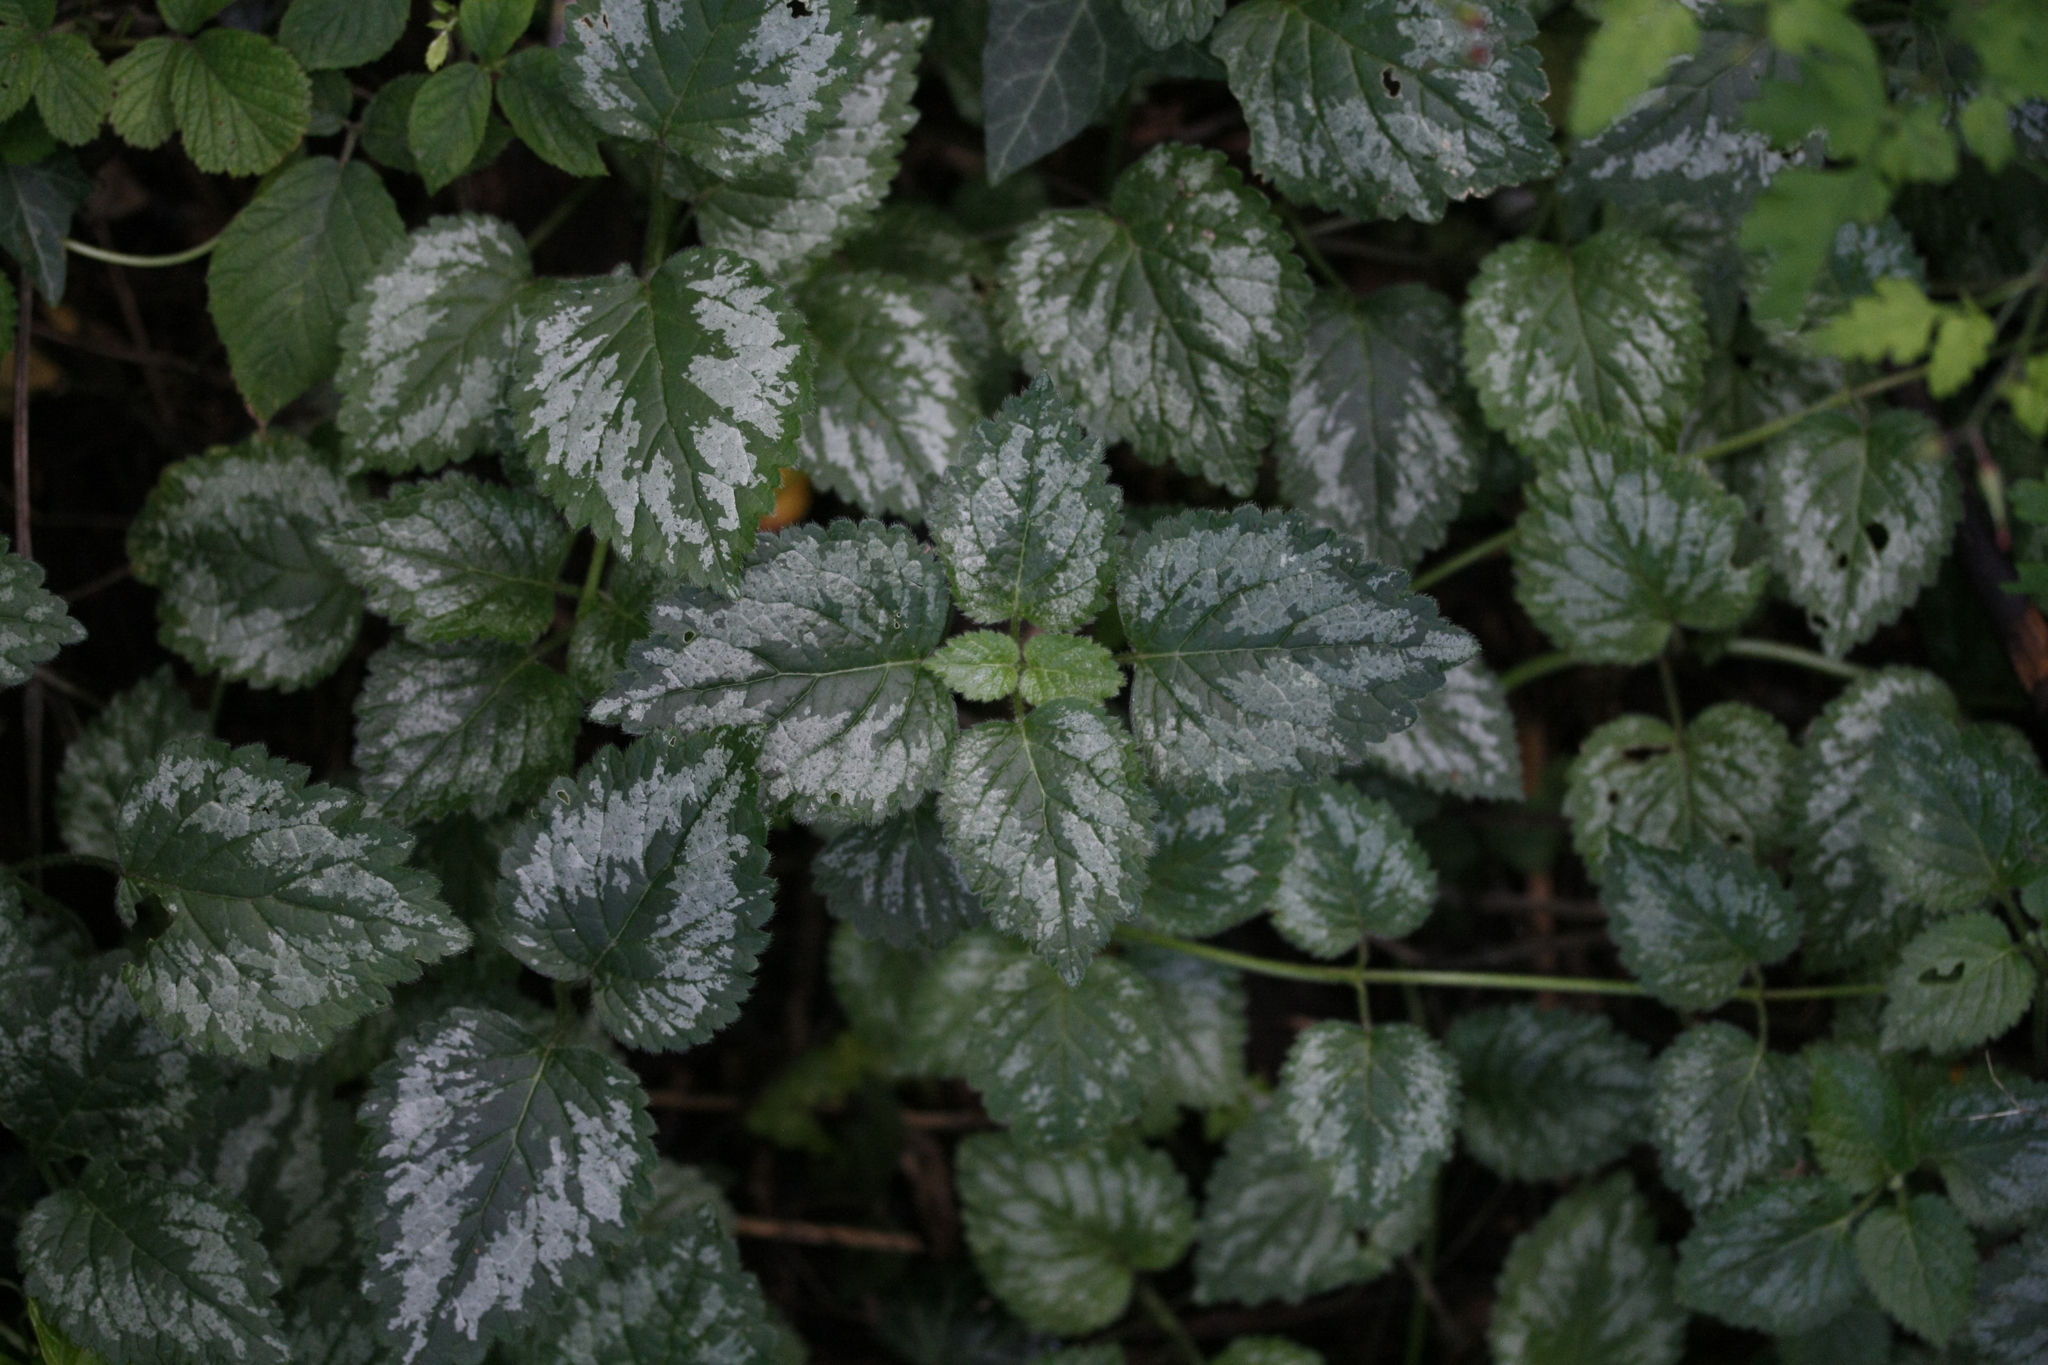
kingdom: Plantae
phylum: Tracheophyta
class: Magnoliopsida
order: Lamiales
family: Lamiaceae
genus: Lamium
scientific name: Lamium galeobdolon
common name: Yellow archangel
